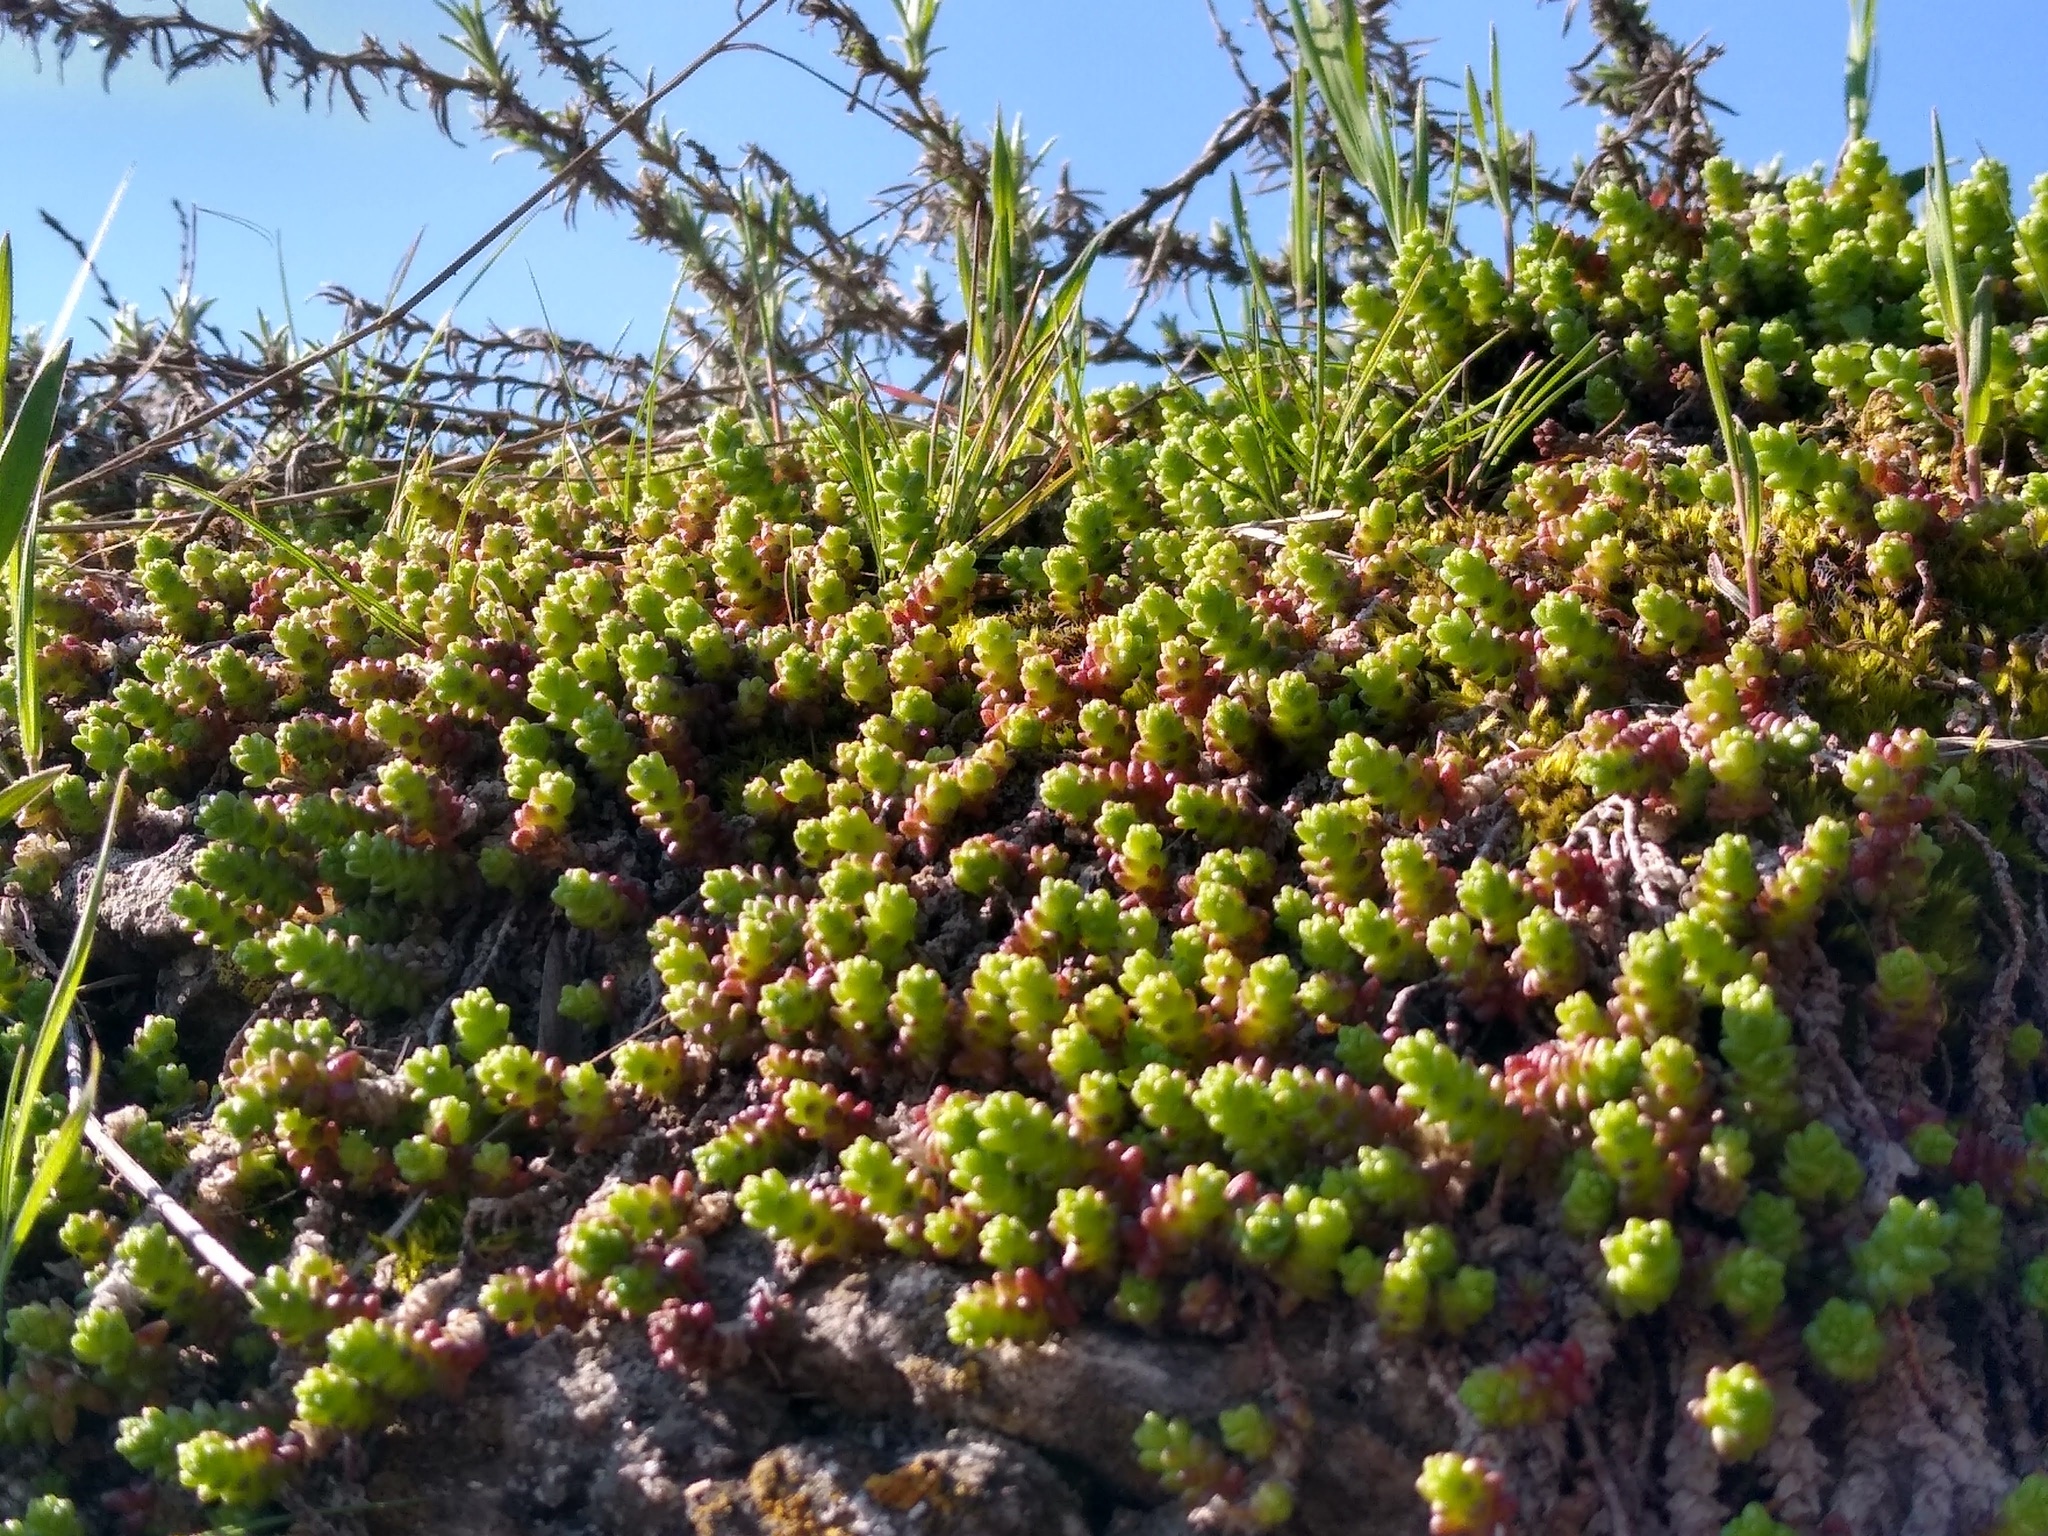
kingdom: Plantae
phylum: Tracheophyta
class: Magnoliopsida
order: Saxifragales
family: Crassulaceae
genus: Sedum
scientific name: Sedum acre
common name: Biting stonecrop
